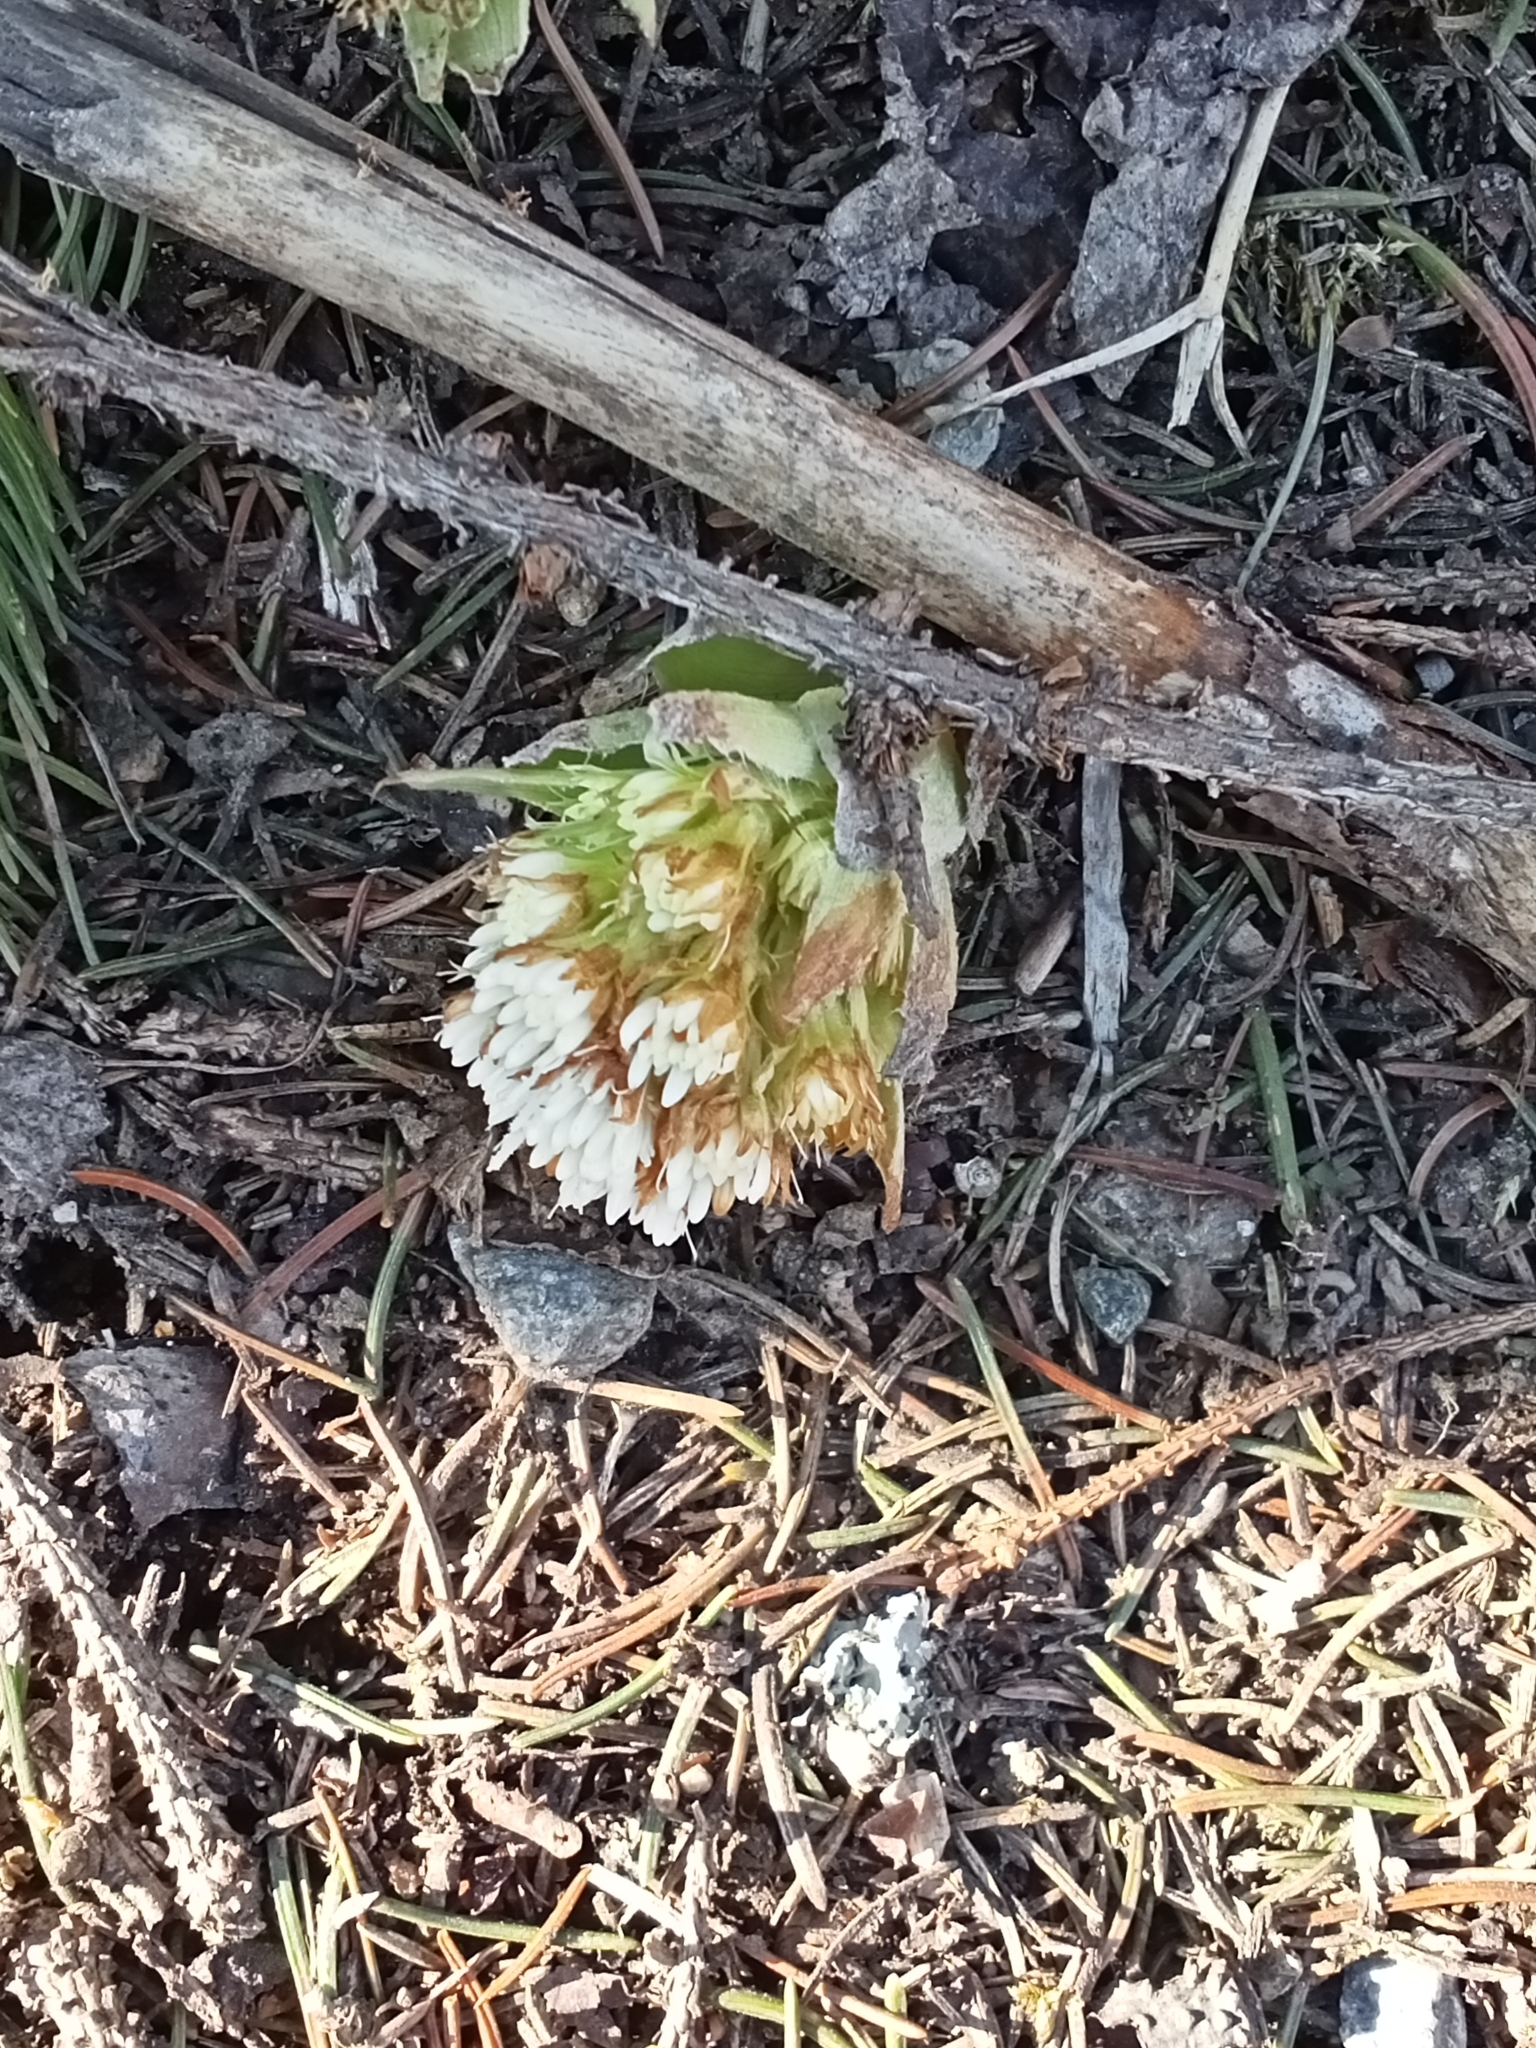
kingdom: Plantae
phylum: Tracheophyta
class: Magnoliopsida
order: Asterales
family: Asteraceae
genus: Petasites
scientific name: Petasites albus
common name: White butterbur
